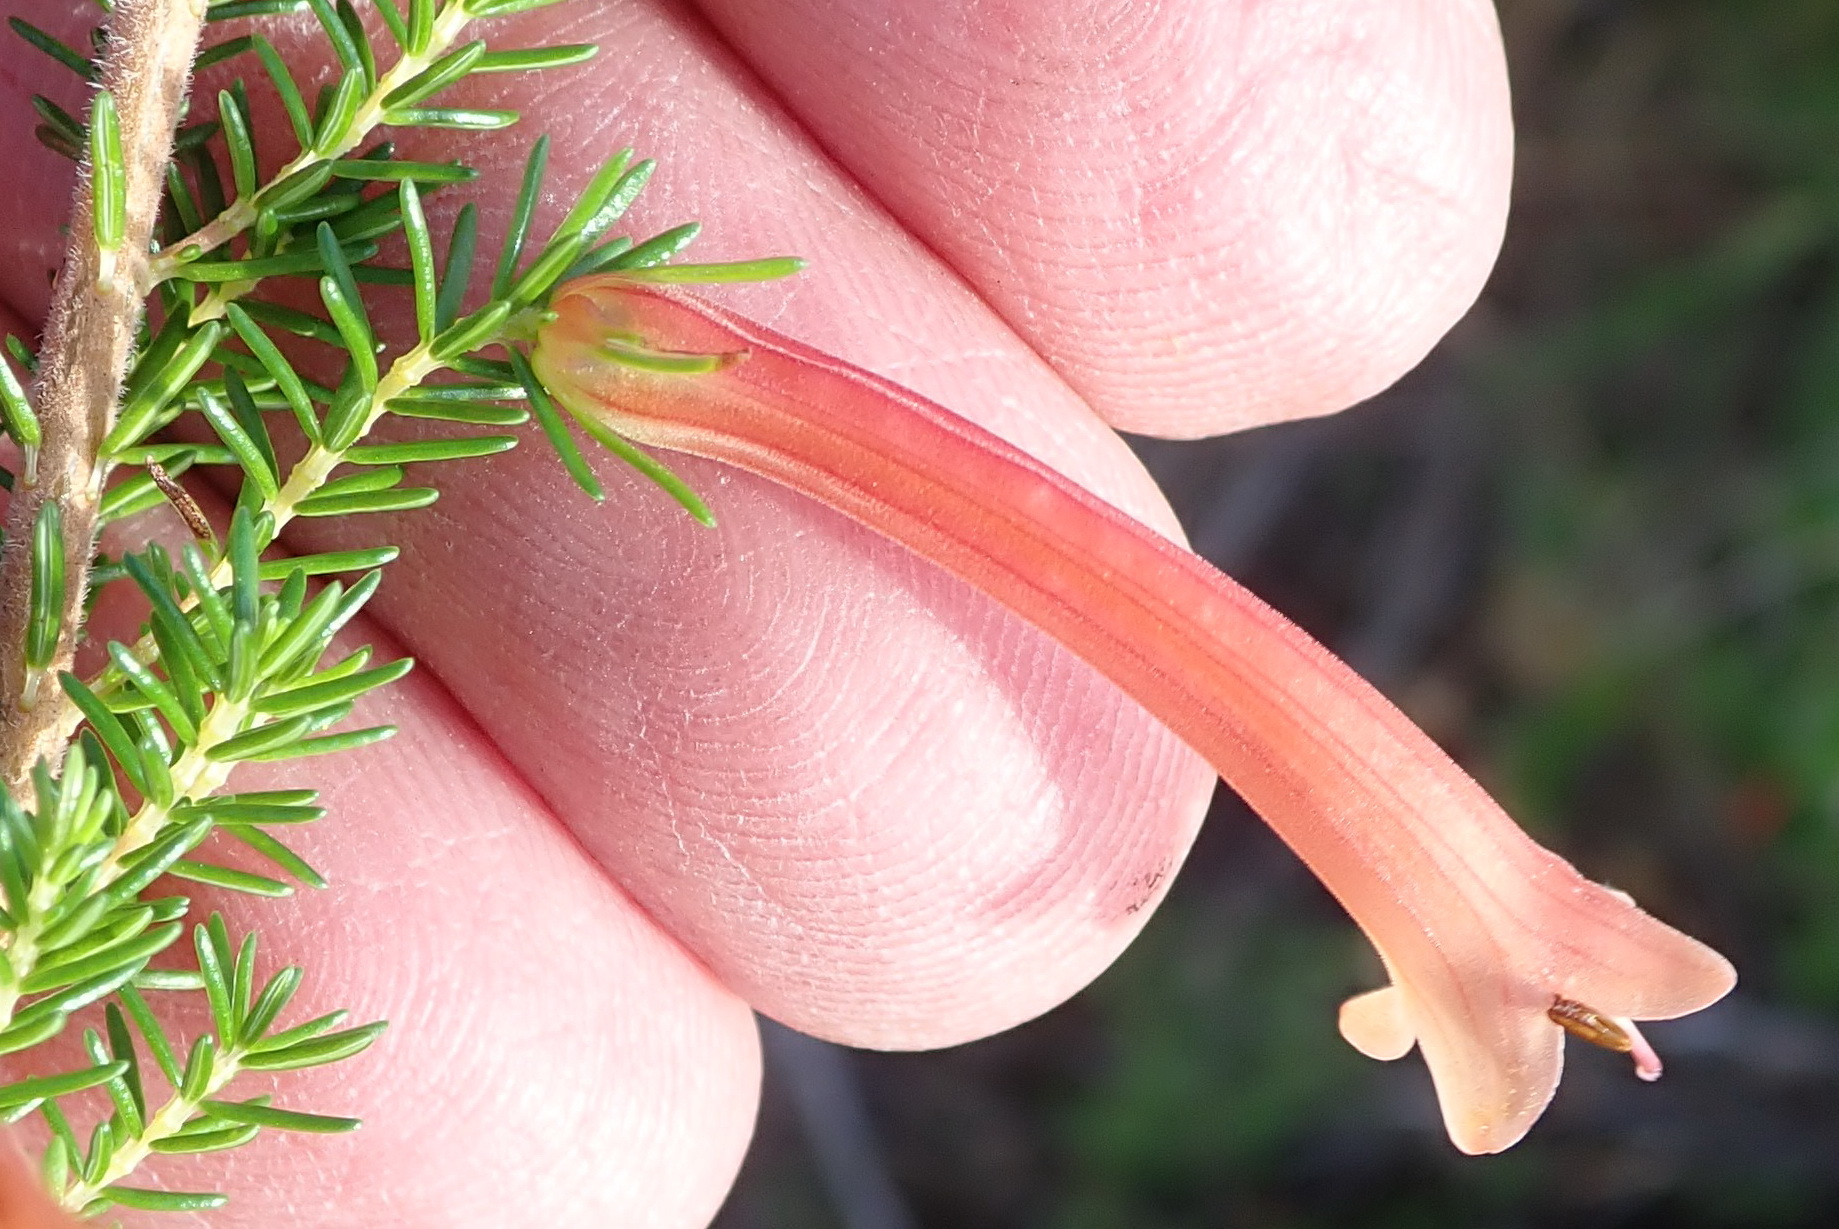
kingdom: Plantae
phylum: Tracheophyta
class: Magnoliopsida
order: Ericales
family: Ericaceae
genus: Erica
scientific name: Erica curviflora
